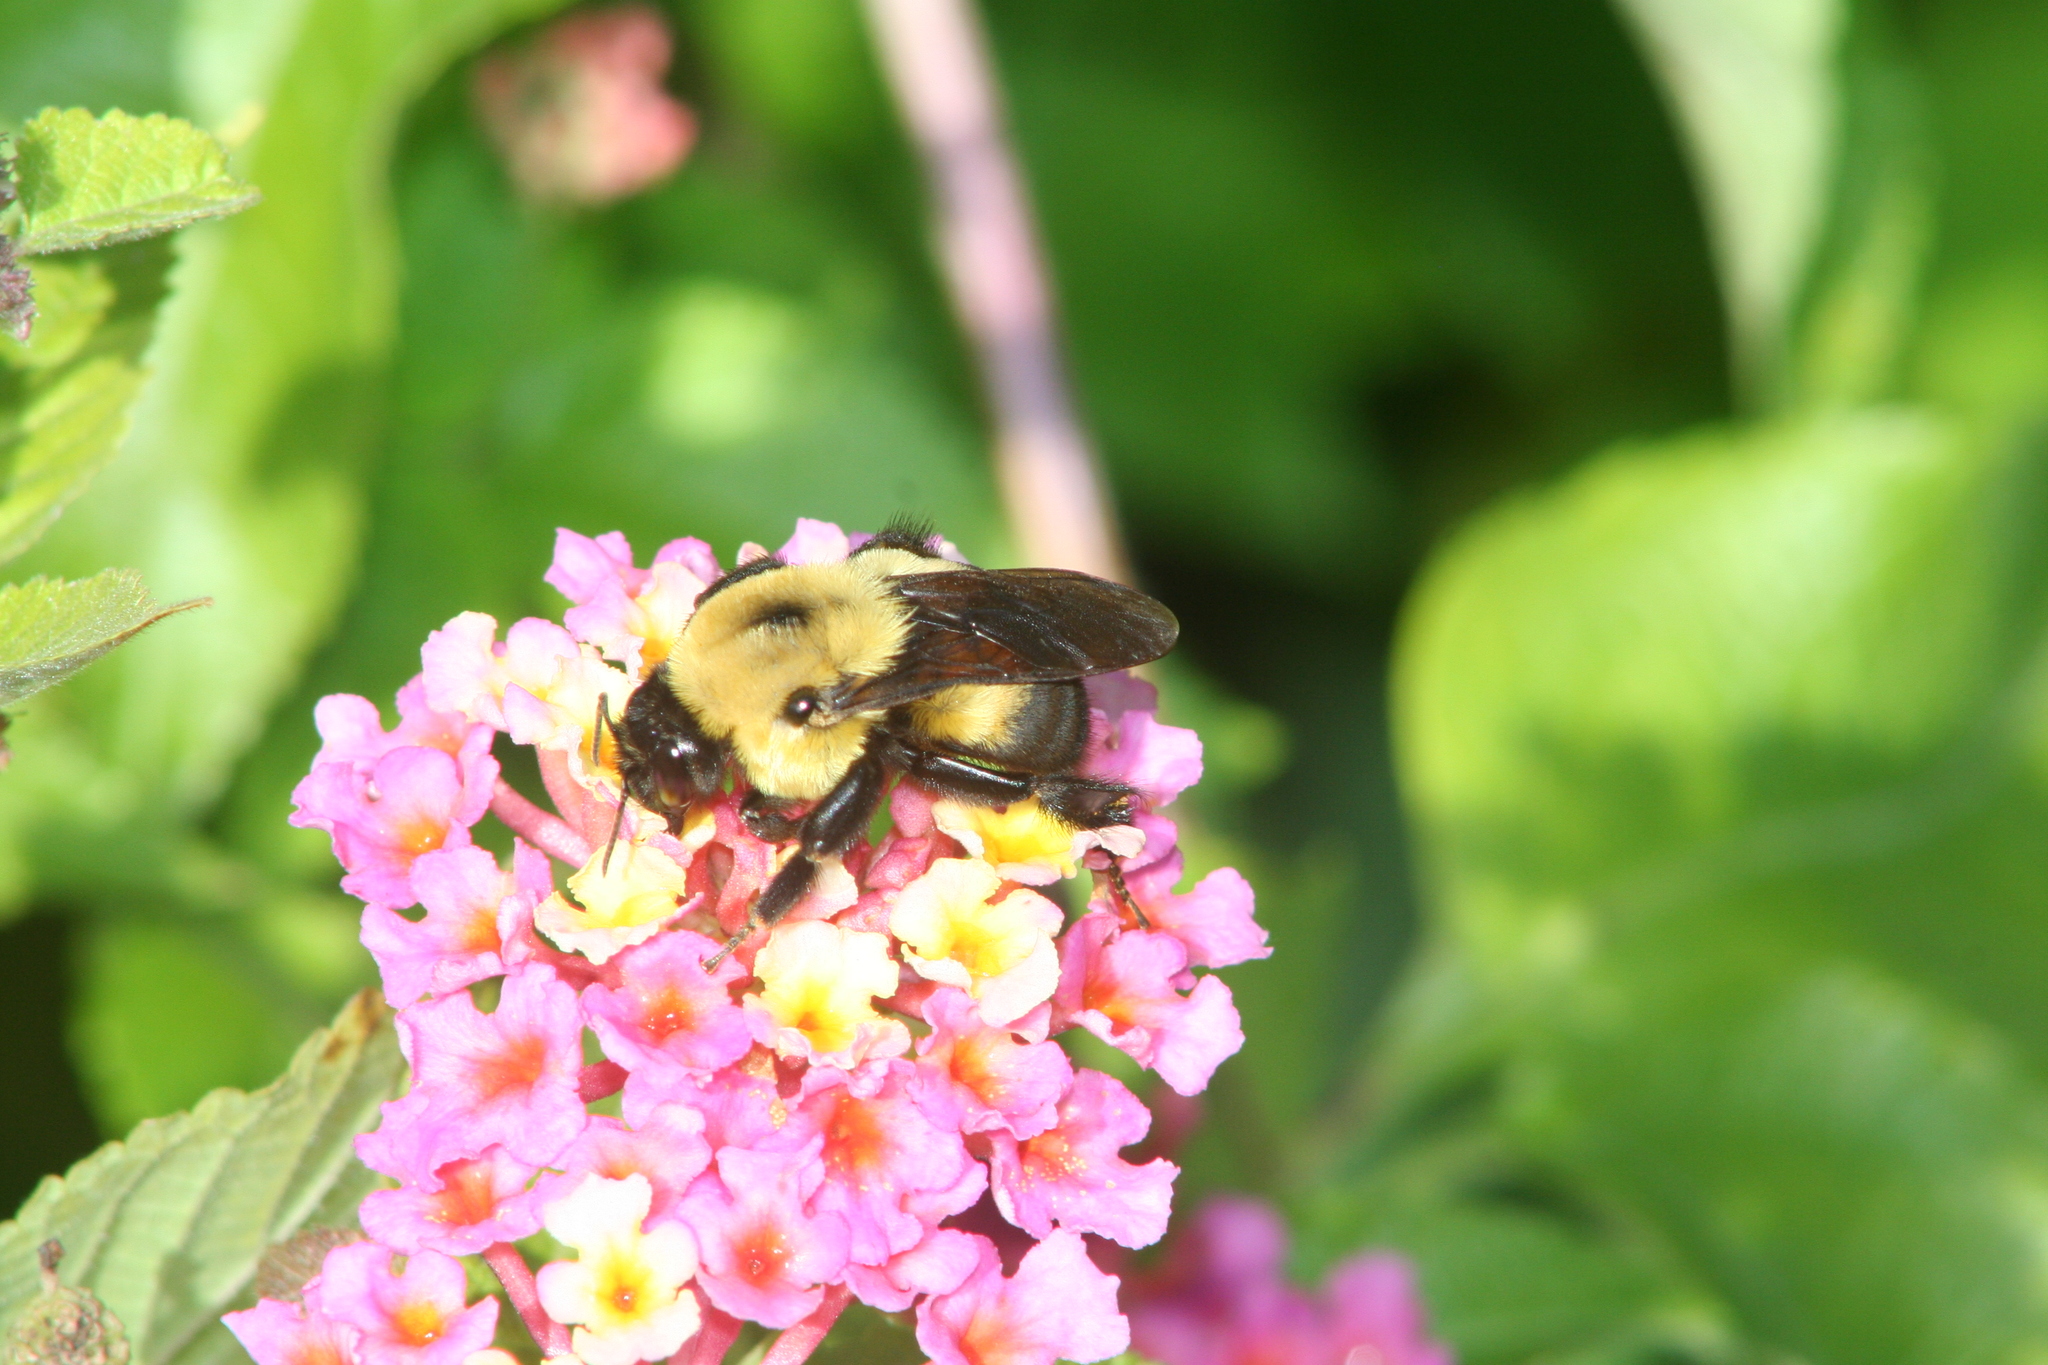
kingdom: Animalia
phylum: Arthropoda
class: Insecta
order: Hymenoptera
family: Apidae
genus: Bombus
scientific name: Bombus griseocollis
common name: Brown-belted bumble bee
